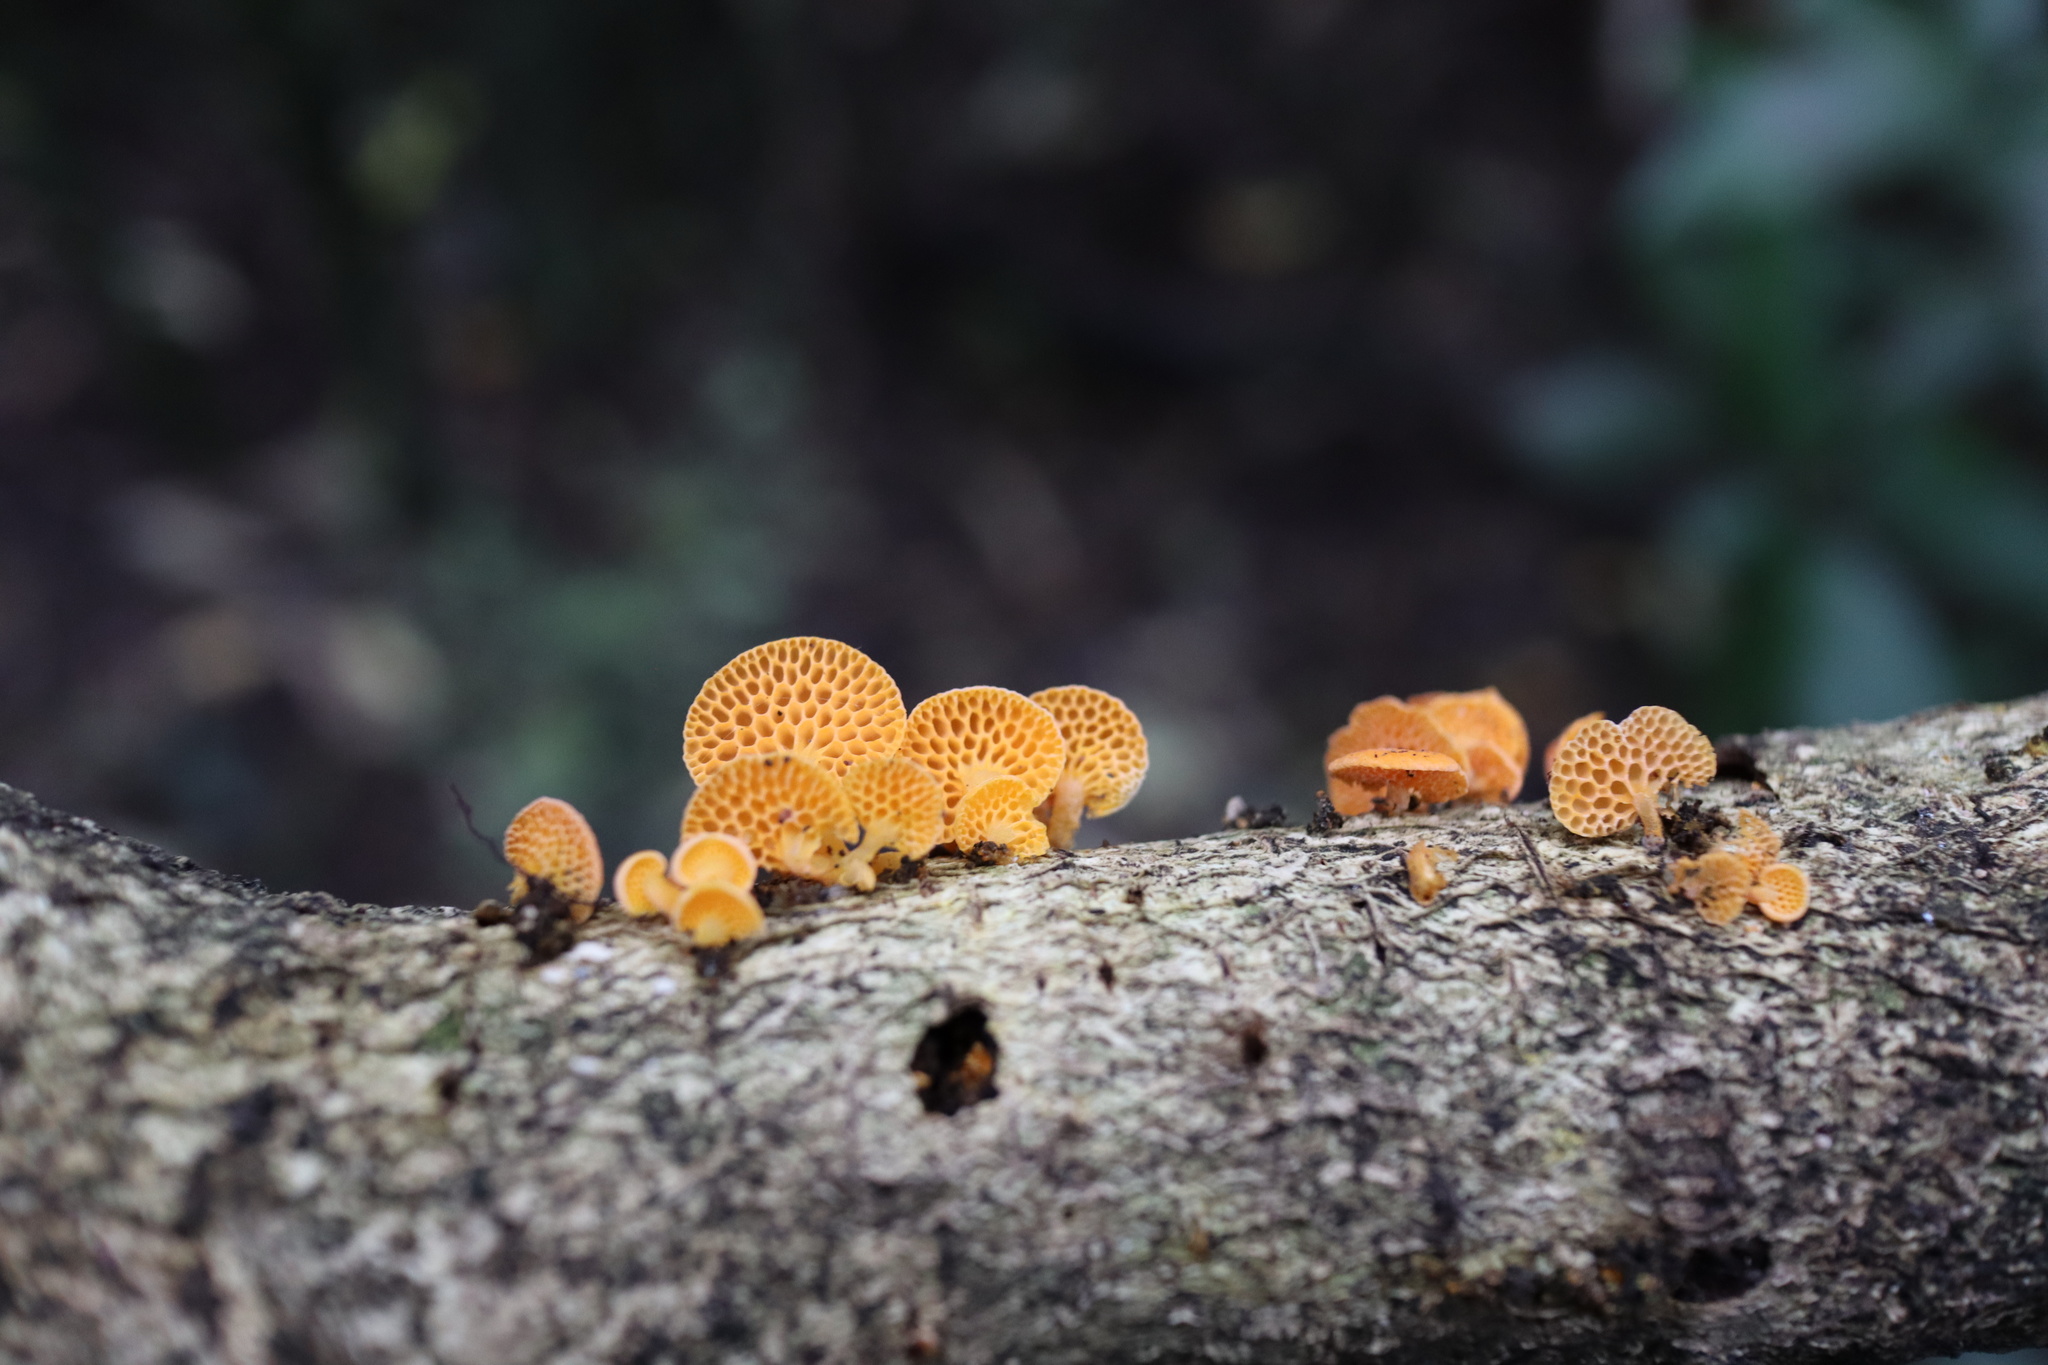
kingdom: Fungi
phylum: Basidiomycota
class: Agaricomycetes
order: Agaricales
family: Mycenaceae
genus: Favolaschia
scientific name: Favolaschia claudopus
